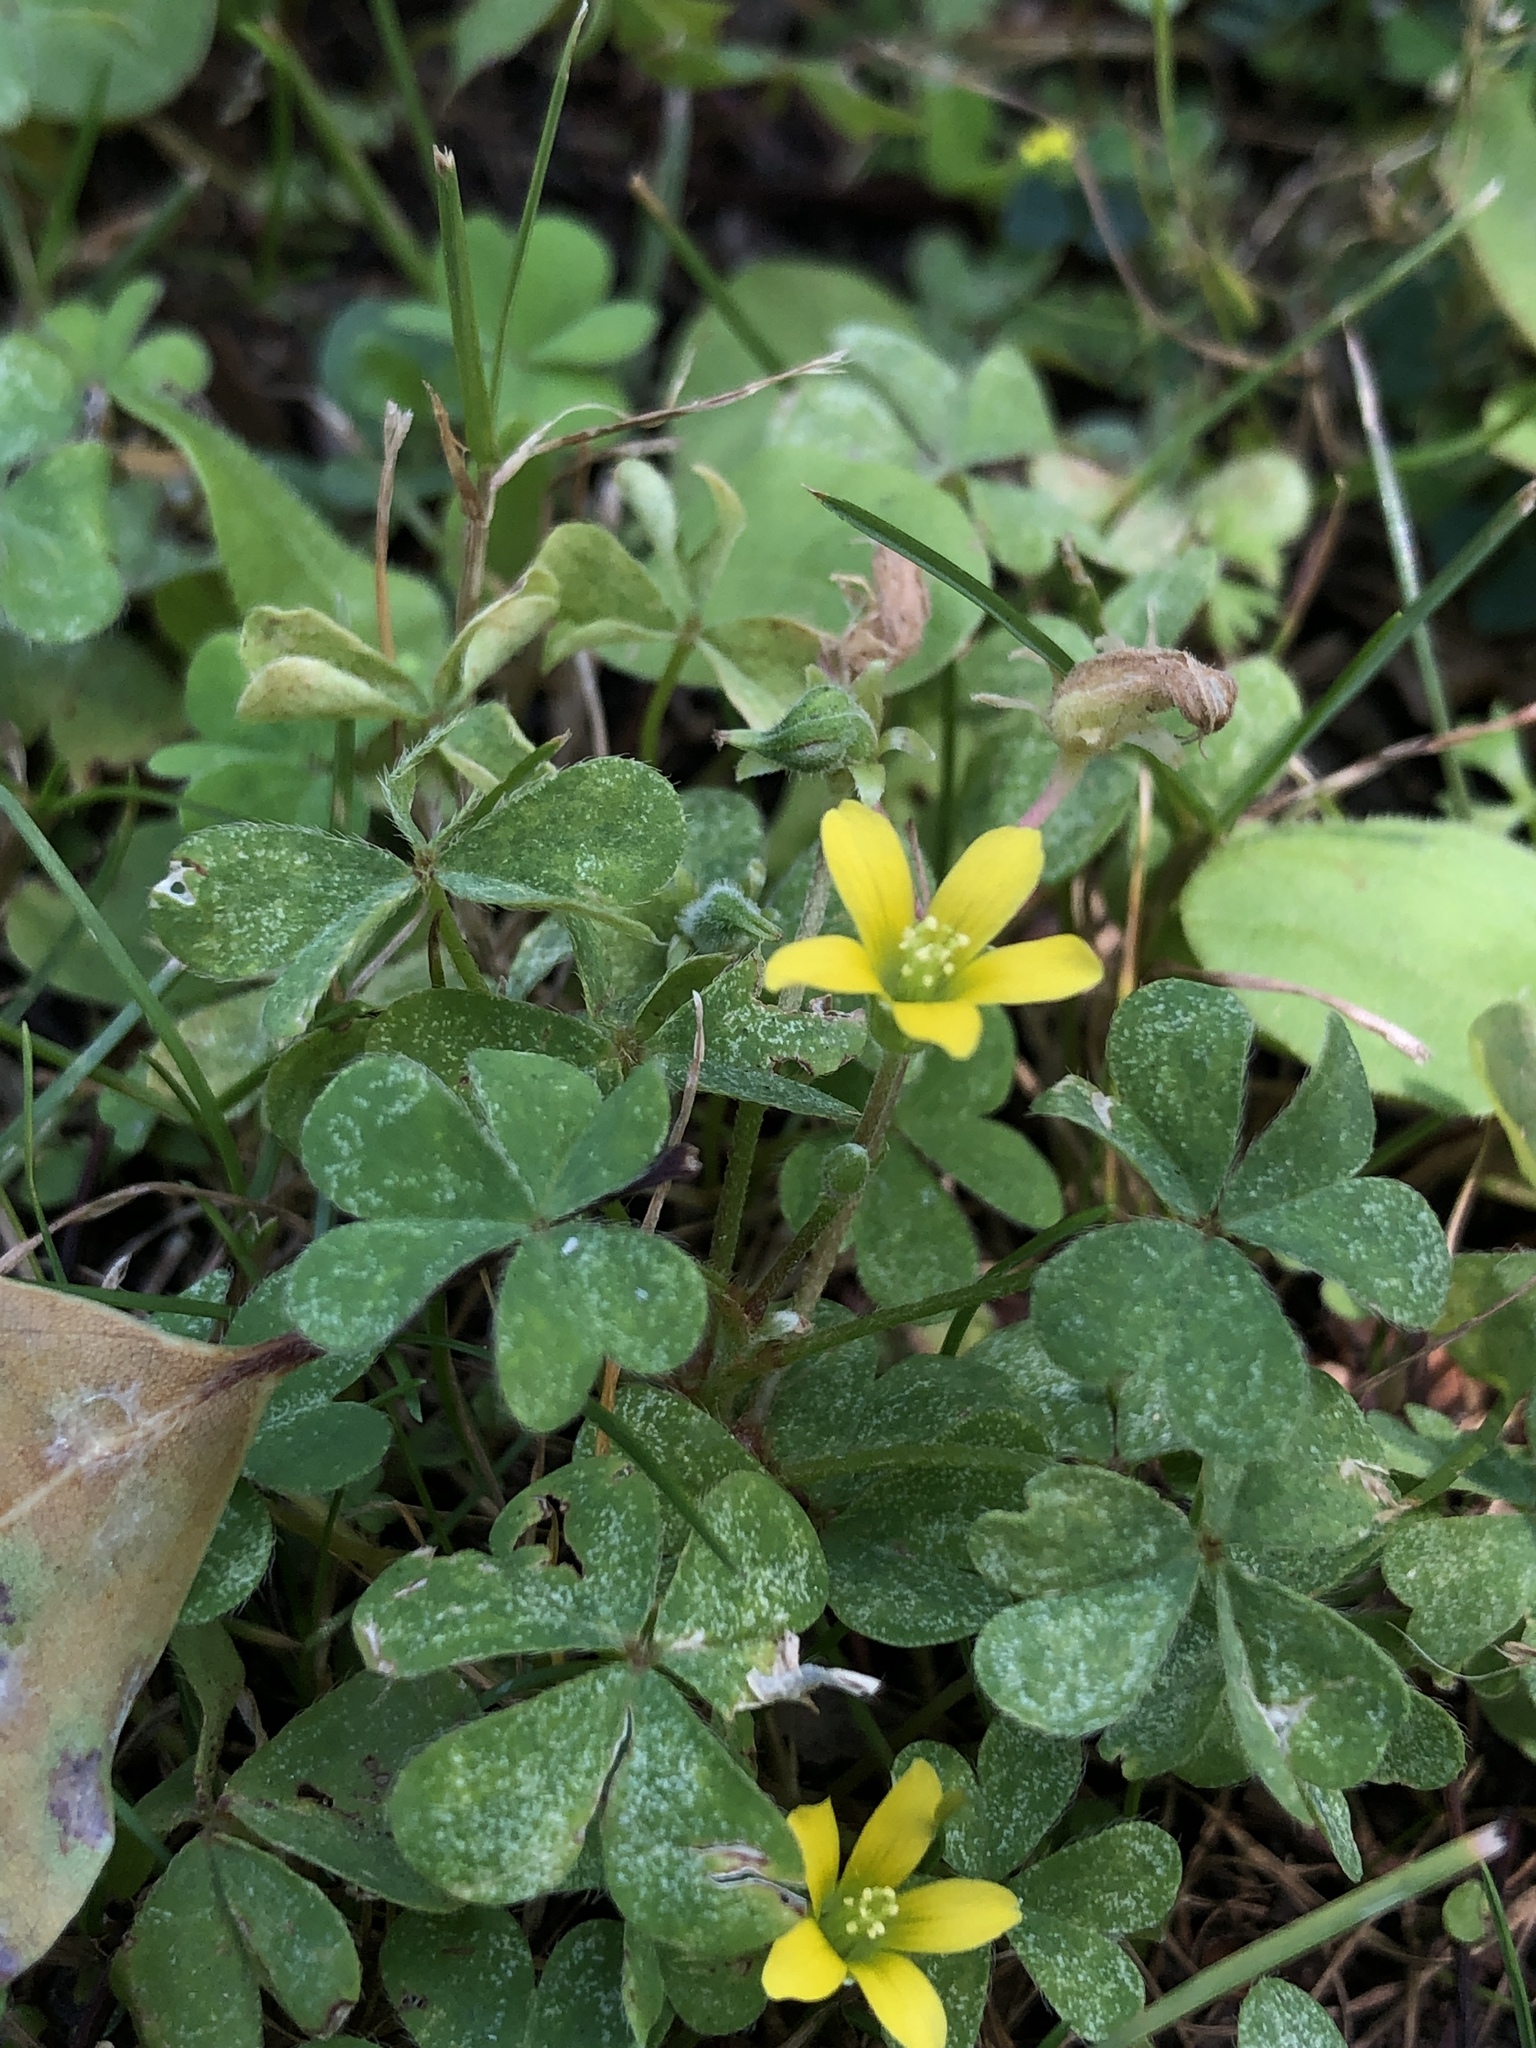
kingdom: Plantae
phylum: Tracheophyta
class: Magnoliopsida
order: Oxalidales
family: Oxalidaceae
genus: Oxalis
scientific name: Oxalis corniculata
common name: Procumbent yellow-sorrel
